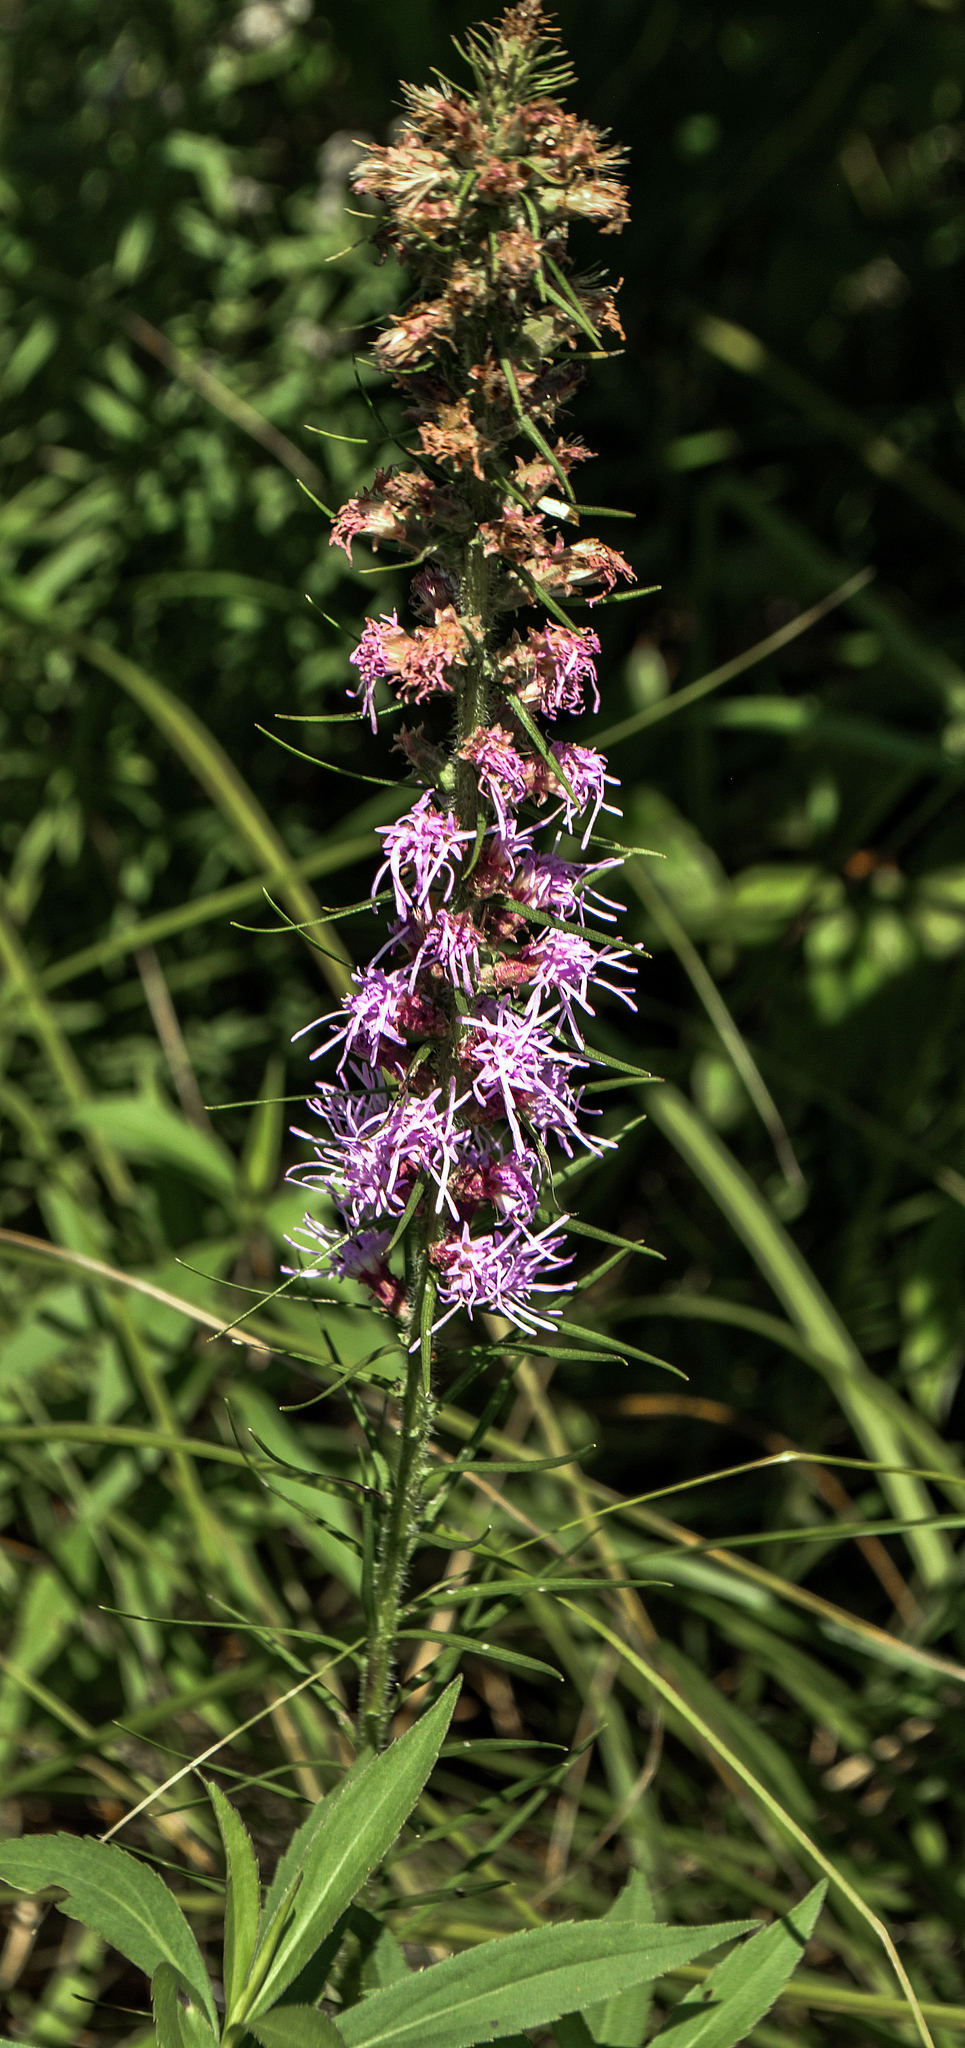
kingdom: Plantae
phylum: Tracheophyta
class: Magnoliopsida
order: Asterales
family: Asteraceae
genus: Liatris
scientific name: Liatris pycnostachya
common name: Cattail gayfeather
